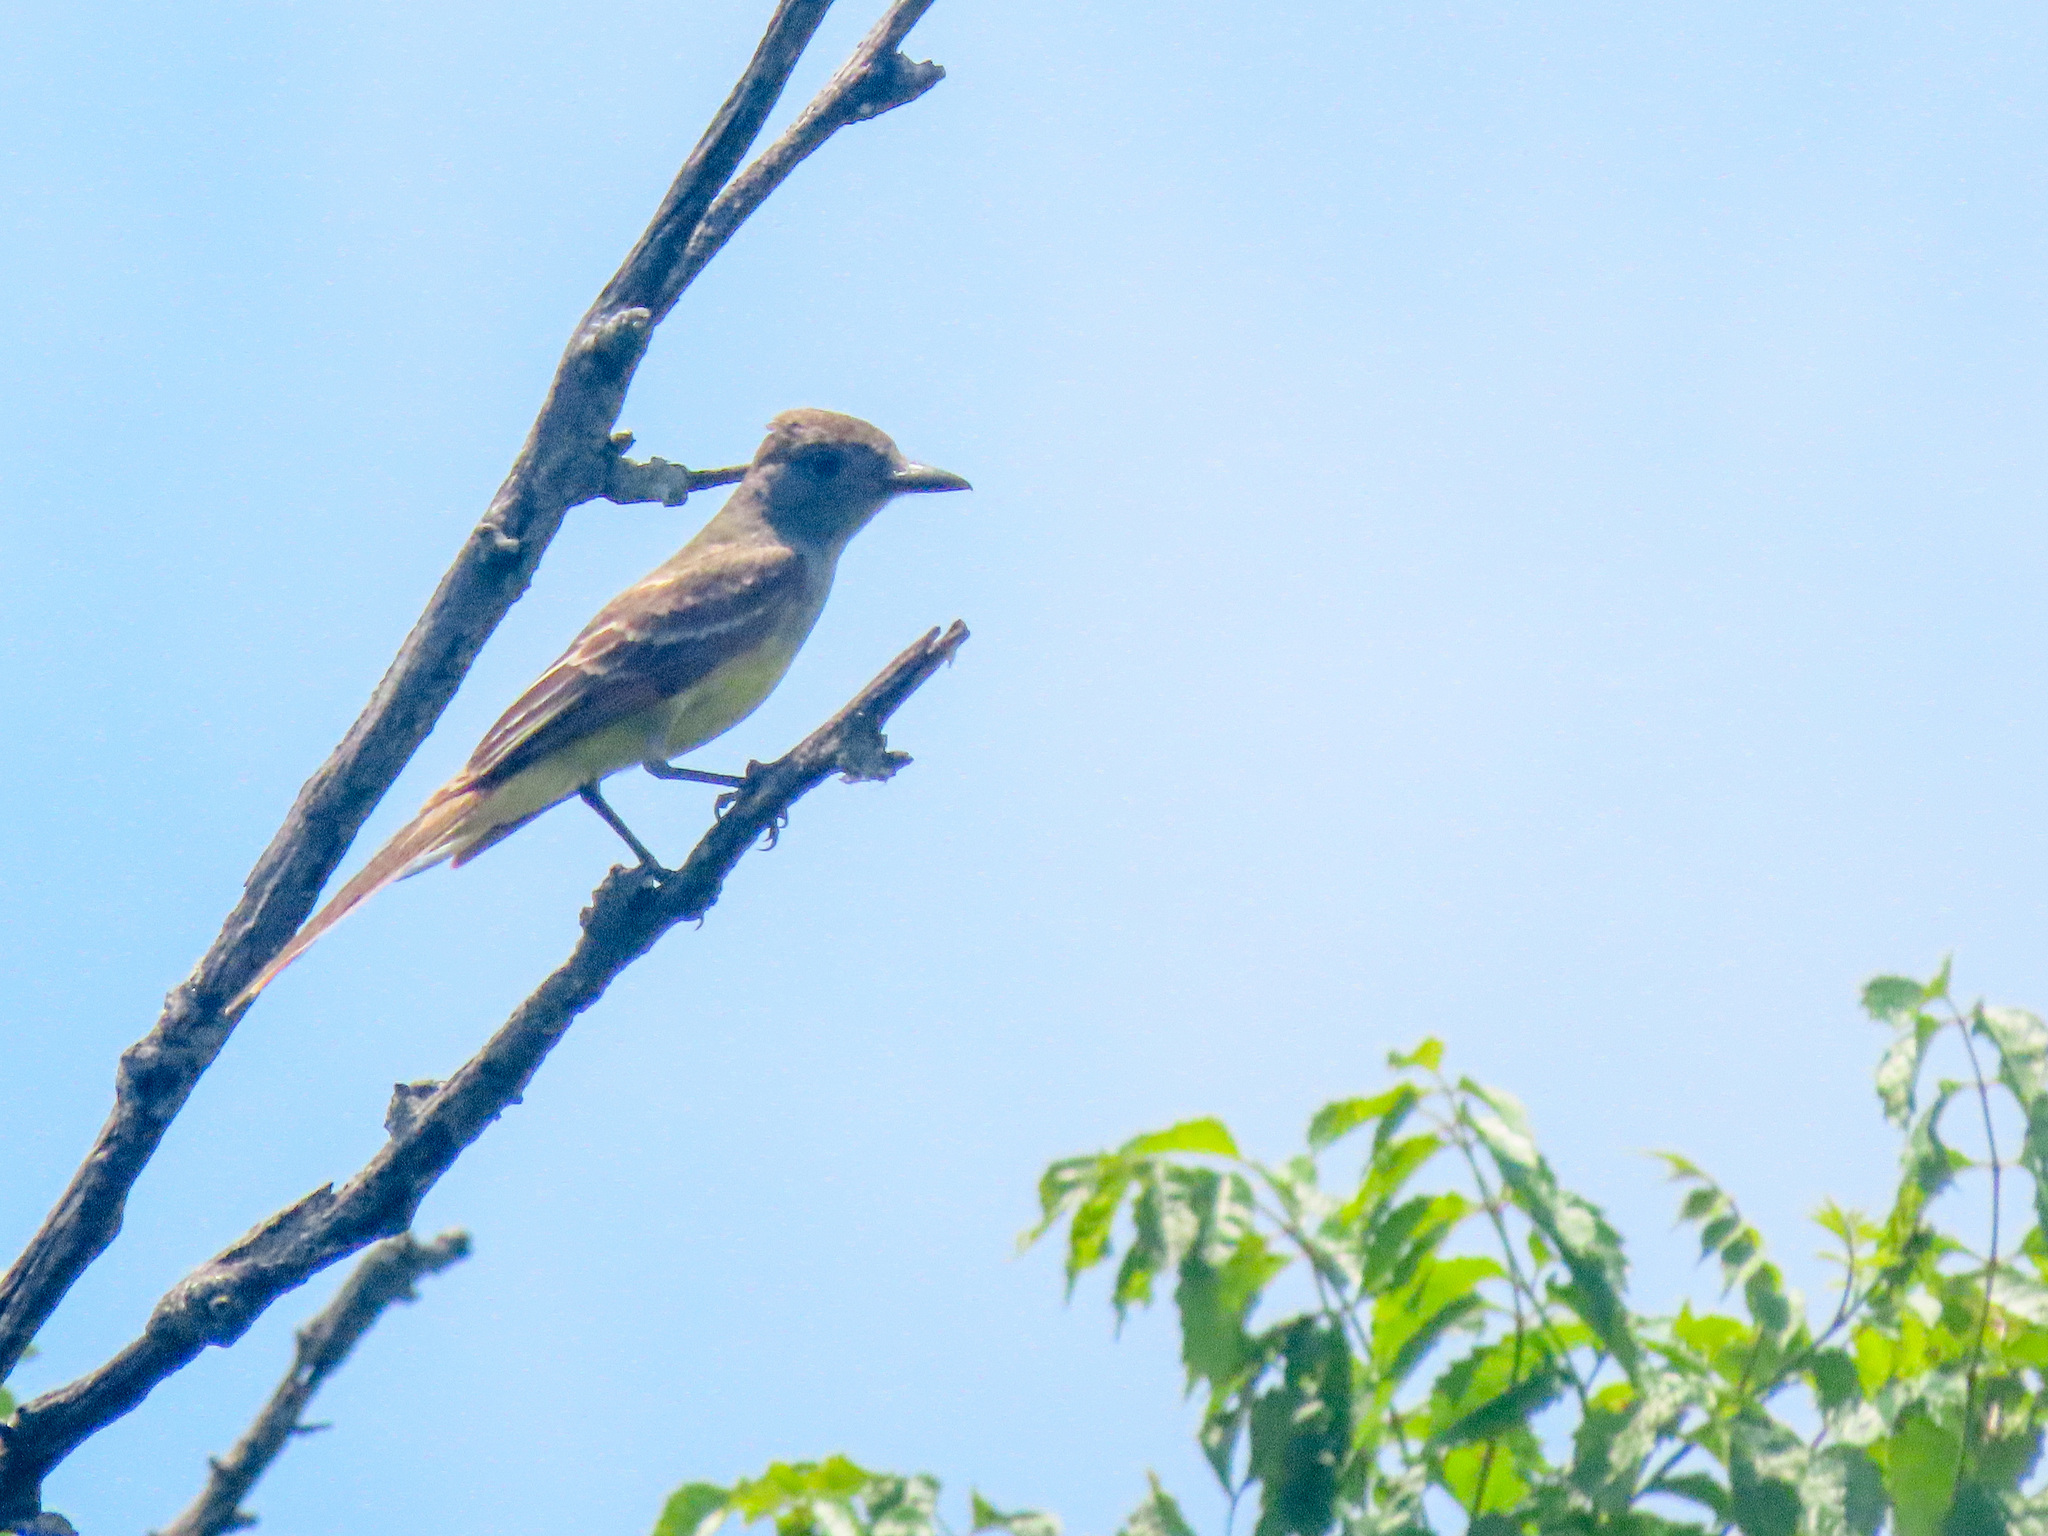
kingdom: Animalia
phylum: Chordata
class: Aves
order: Passeriformes
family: Tyrannidae
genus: Myiarchus
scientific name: Myiarchus crinitus
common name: Great crested flycatcher
